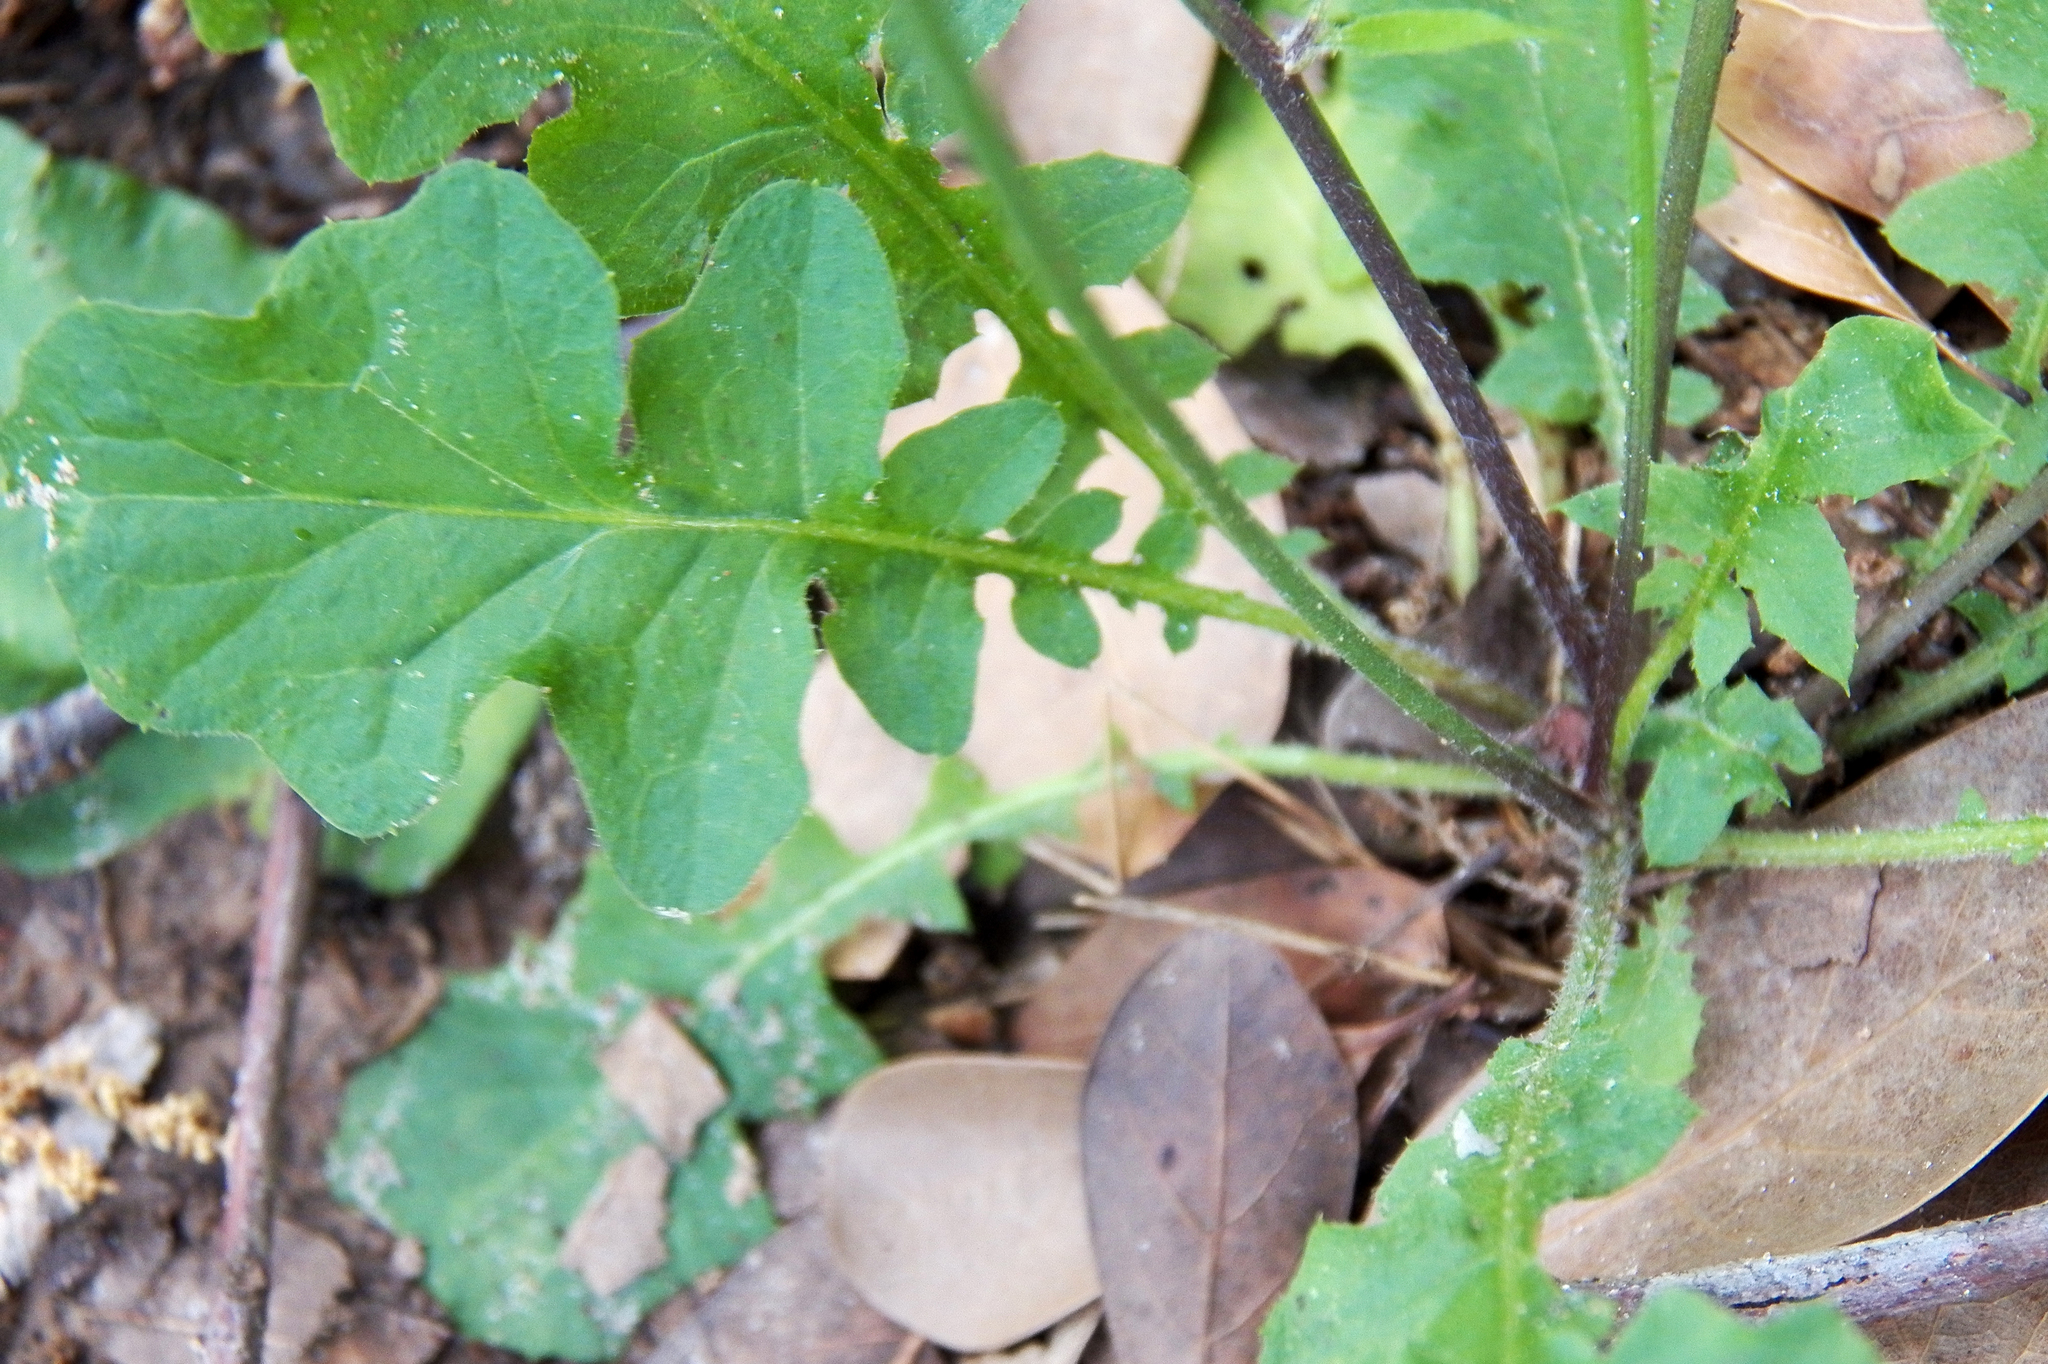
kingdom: Plantae
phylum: Tracheophyta
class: Magnoliopsida
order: Asterales
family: Asteraceae
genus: Youngia
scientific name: Youngia japonica
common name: Oriental false hawksbeard
